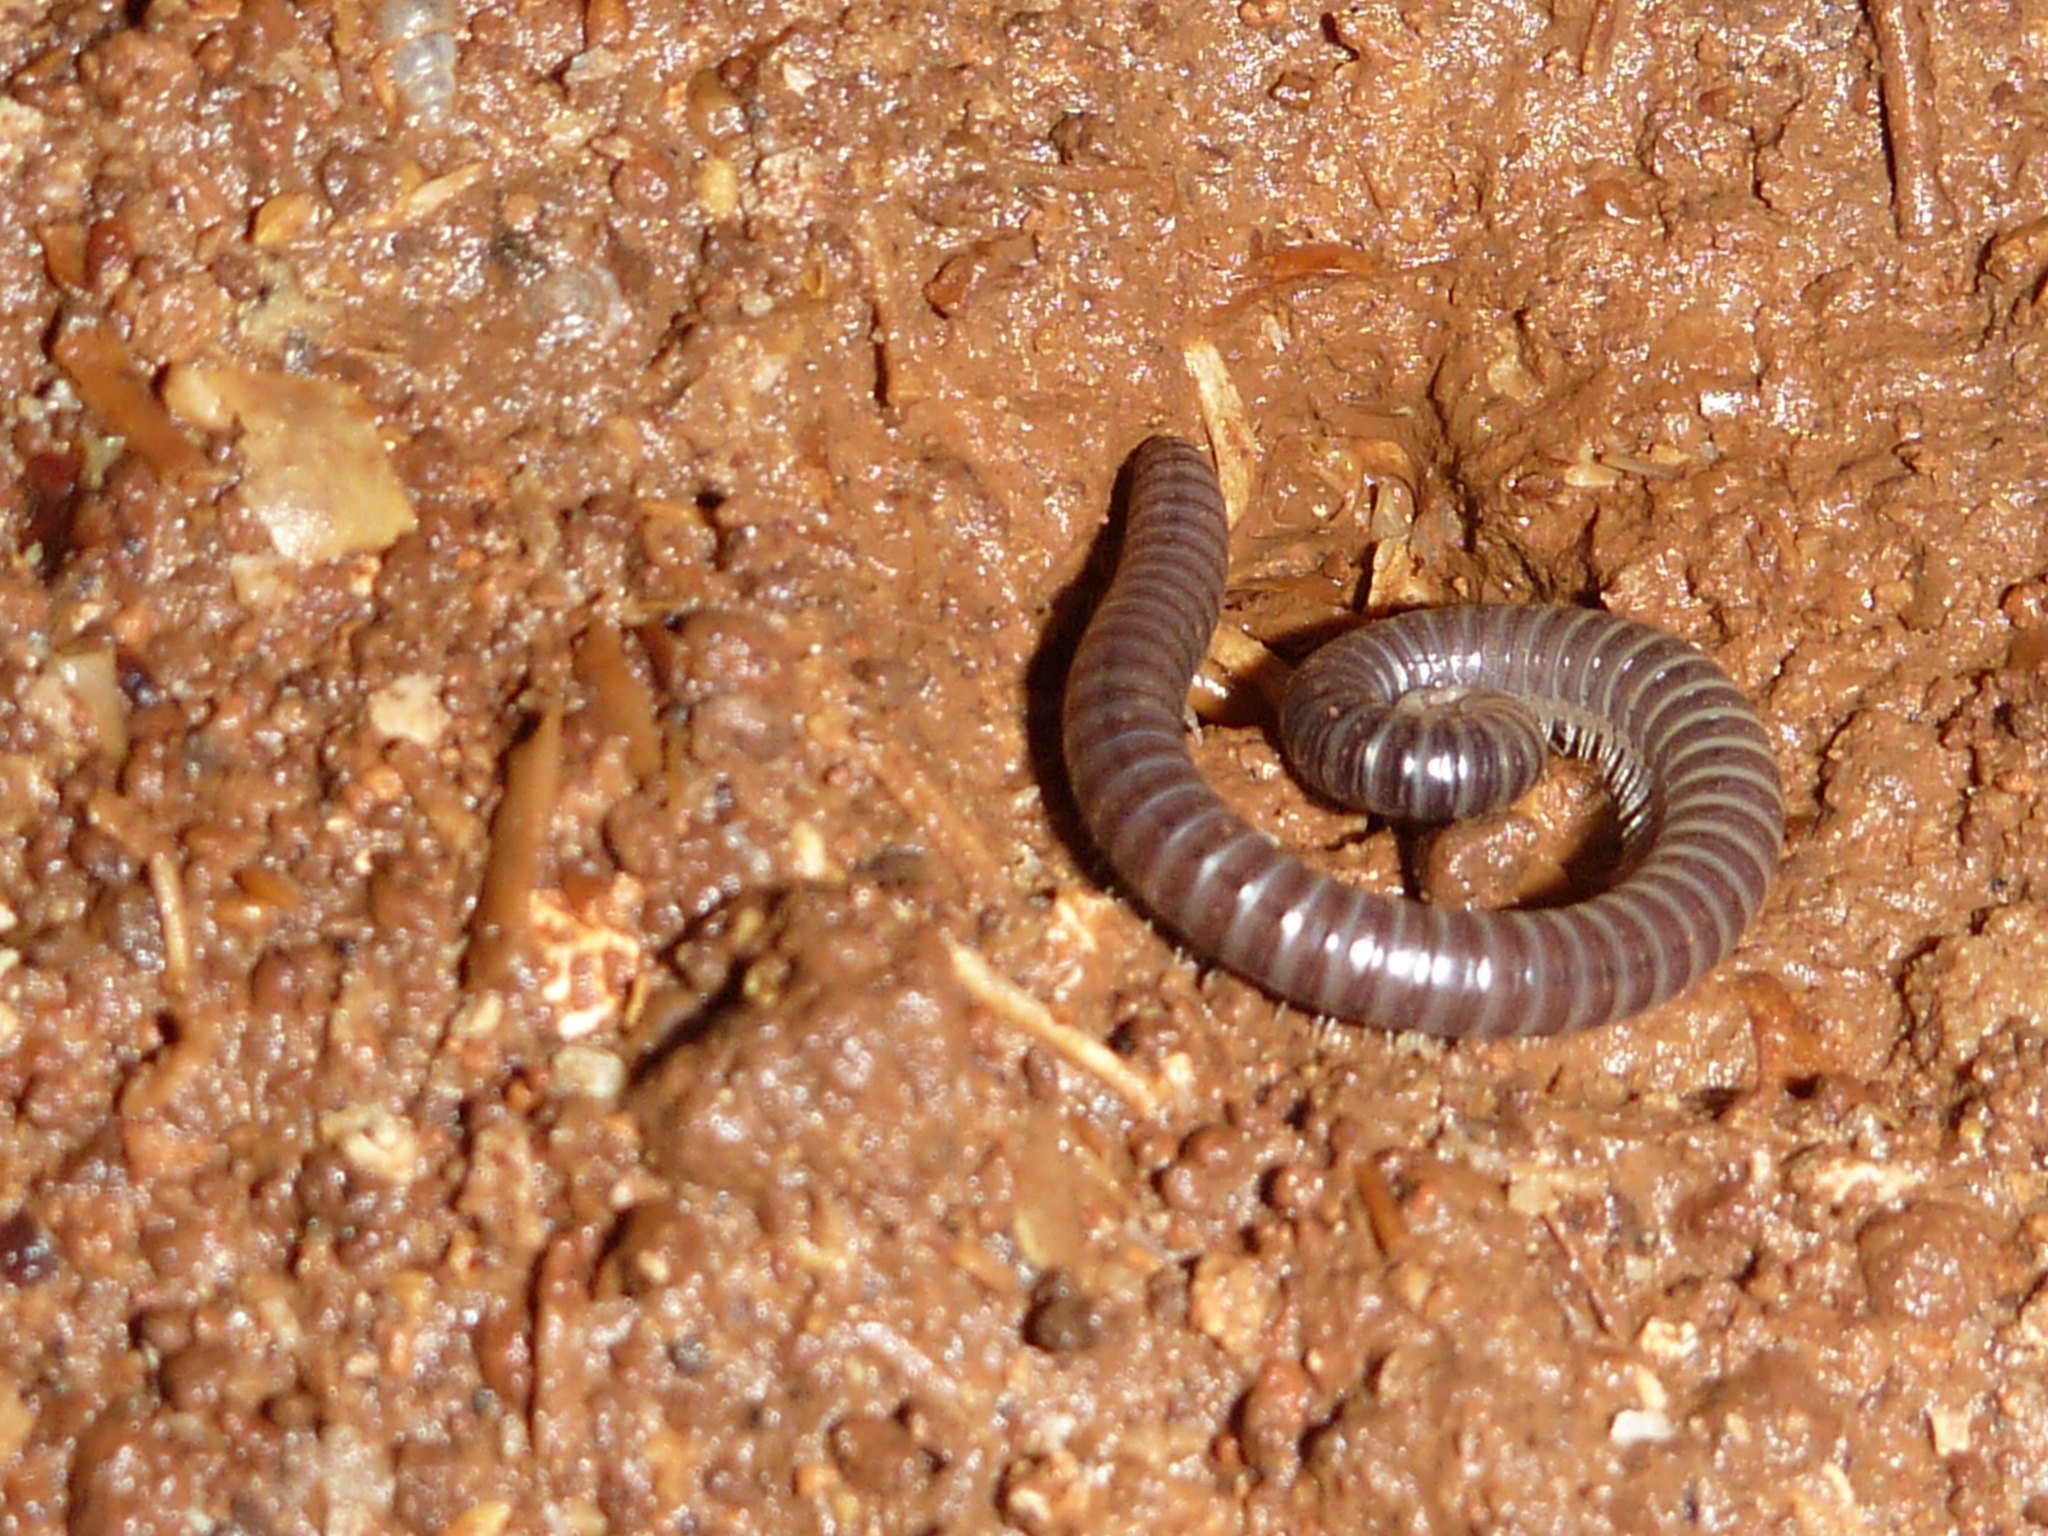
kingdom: Animalia
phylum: Arthropoda
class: Diplopoda
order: Spirobolida
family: Rhinocricidae
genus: Alcimobolus
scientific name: Alcimobolus domingensis
